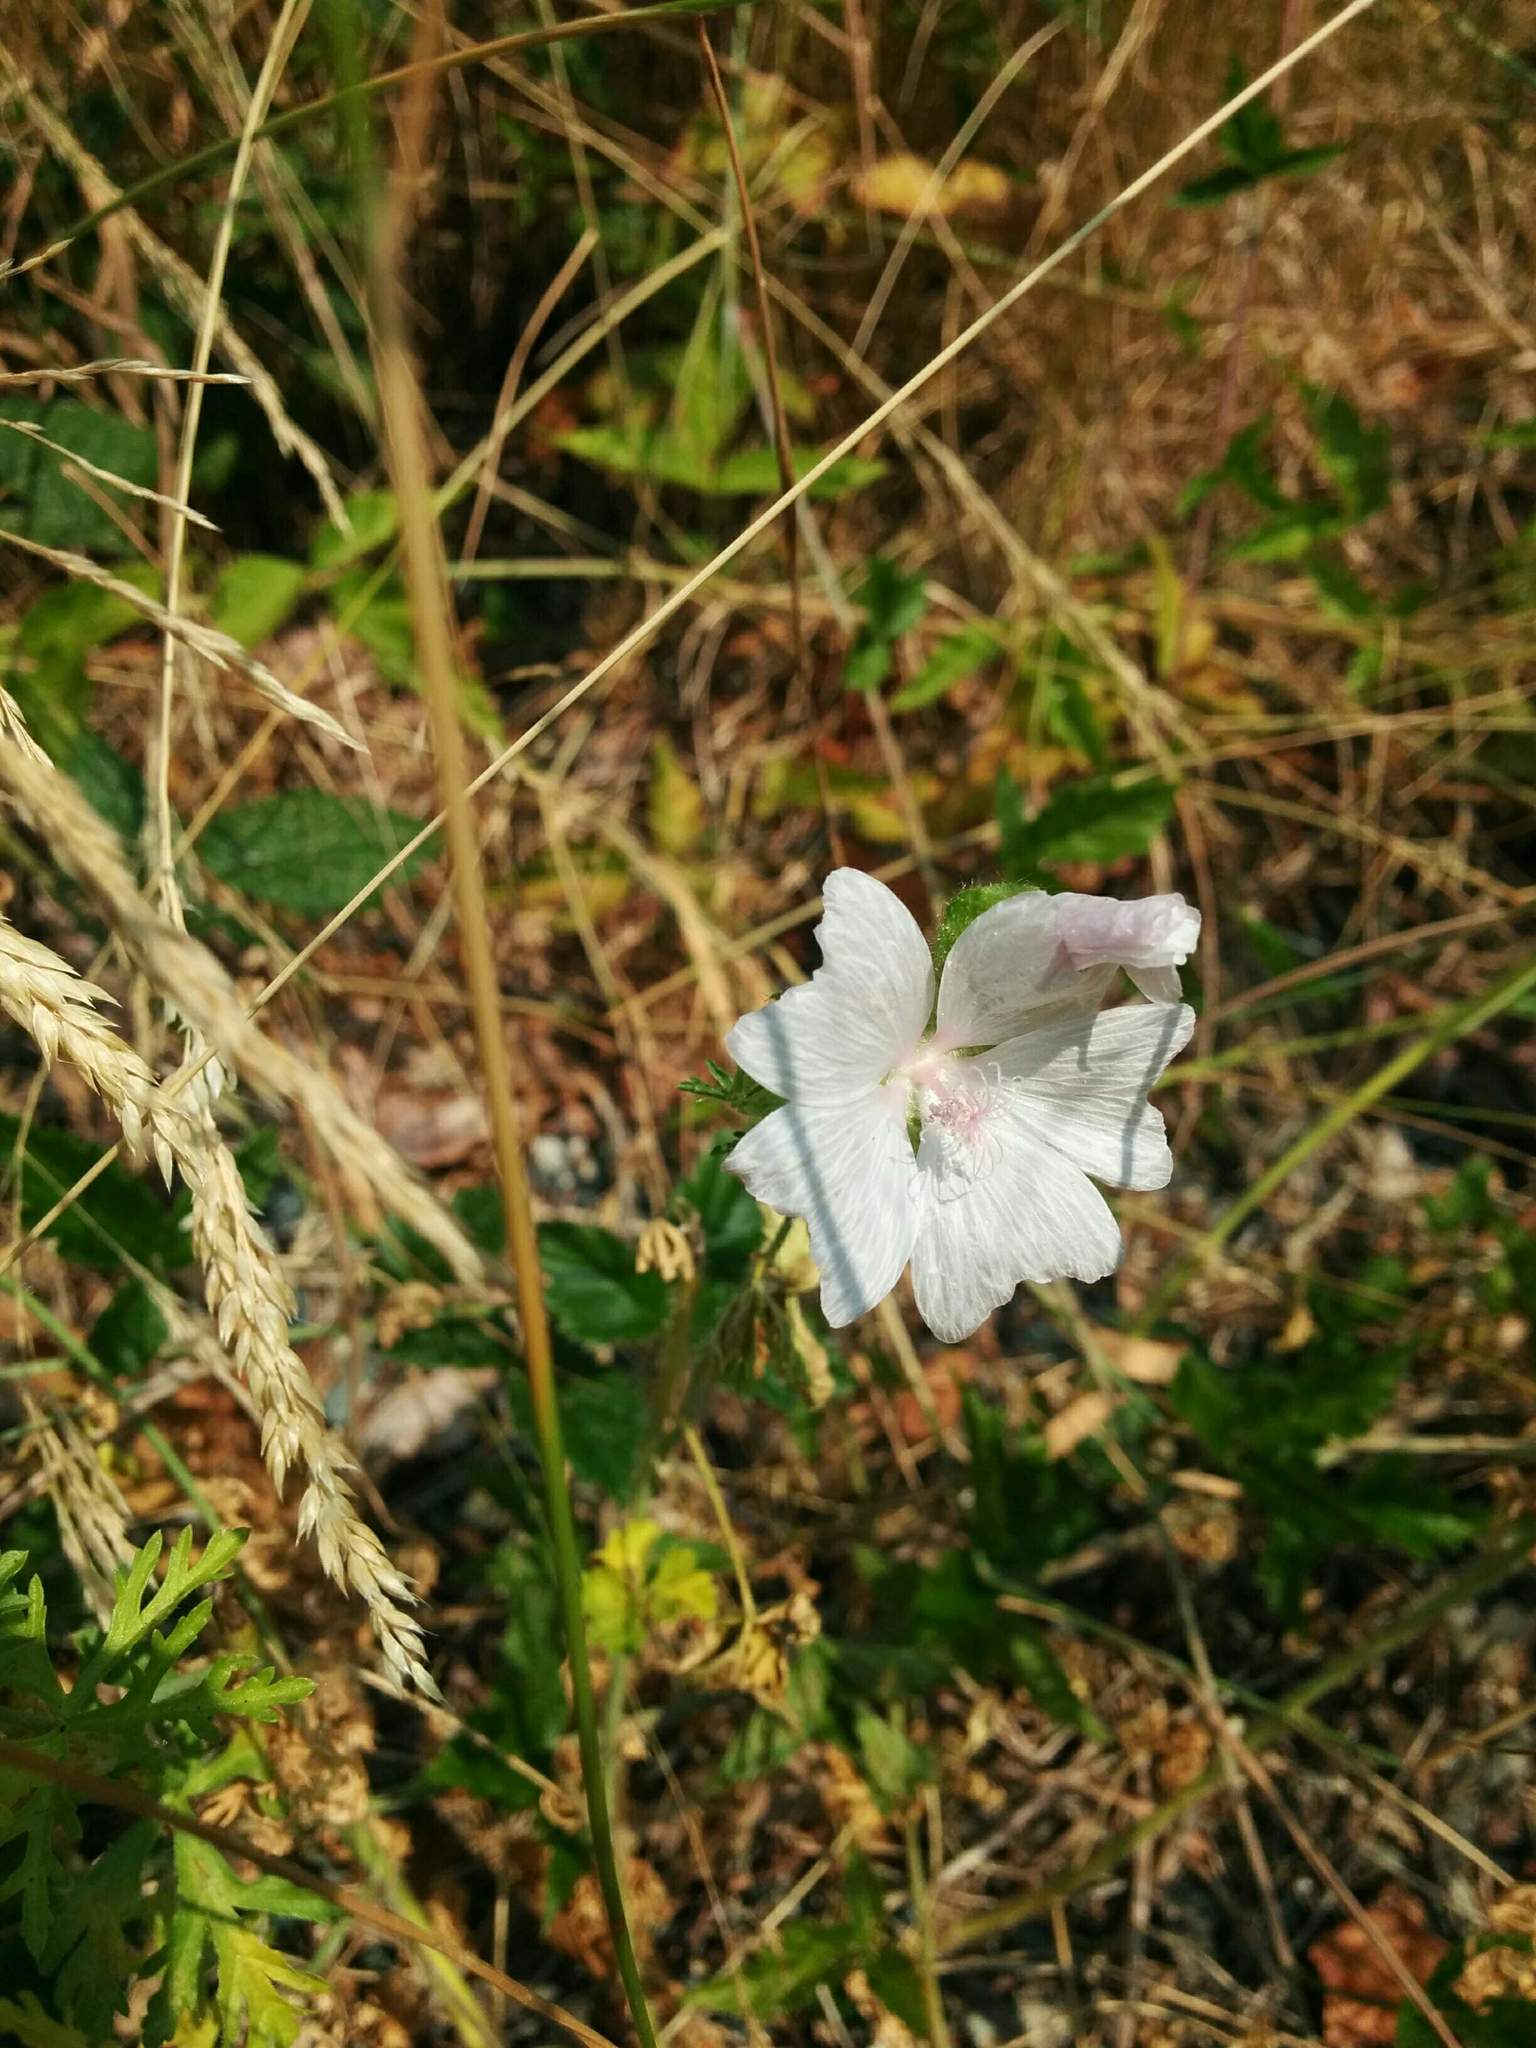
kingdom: Plantae
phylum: Tracheophyta
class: Magnoliopsida
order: Malvales
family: Malvaceae
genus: Malva
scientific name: Malva moschata
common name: Musk mallow
